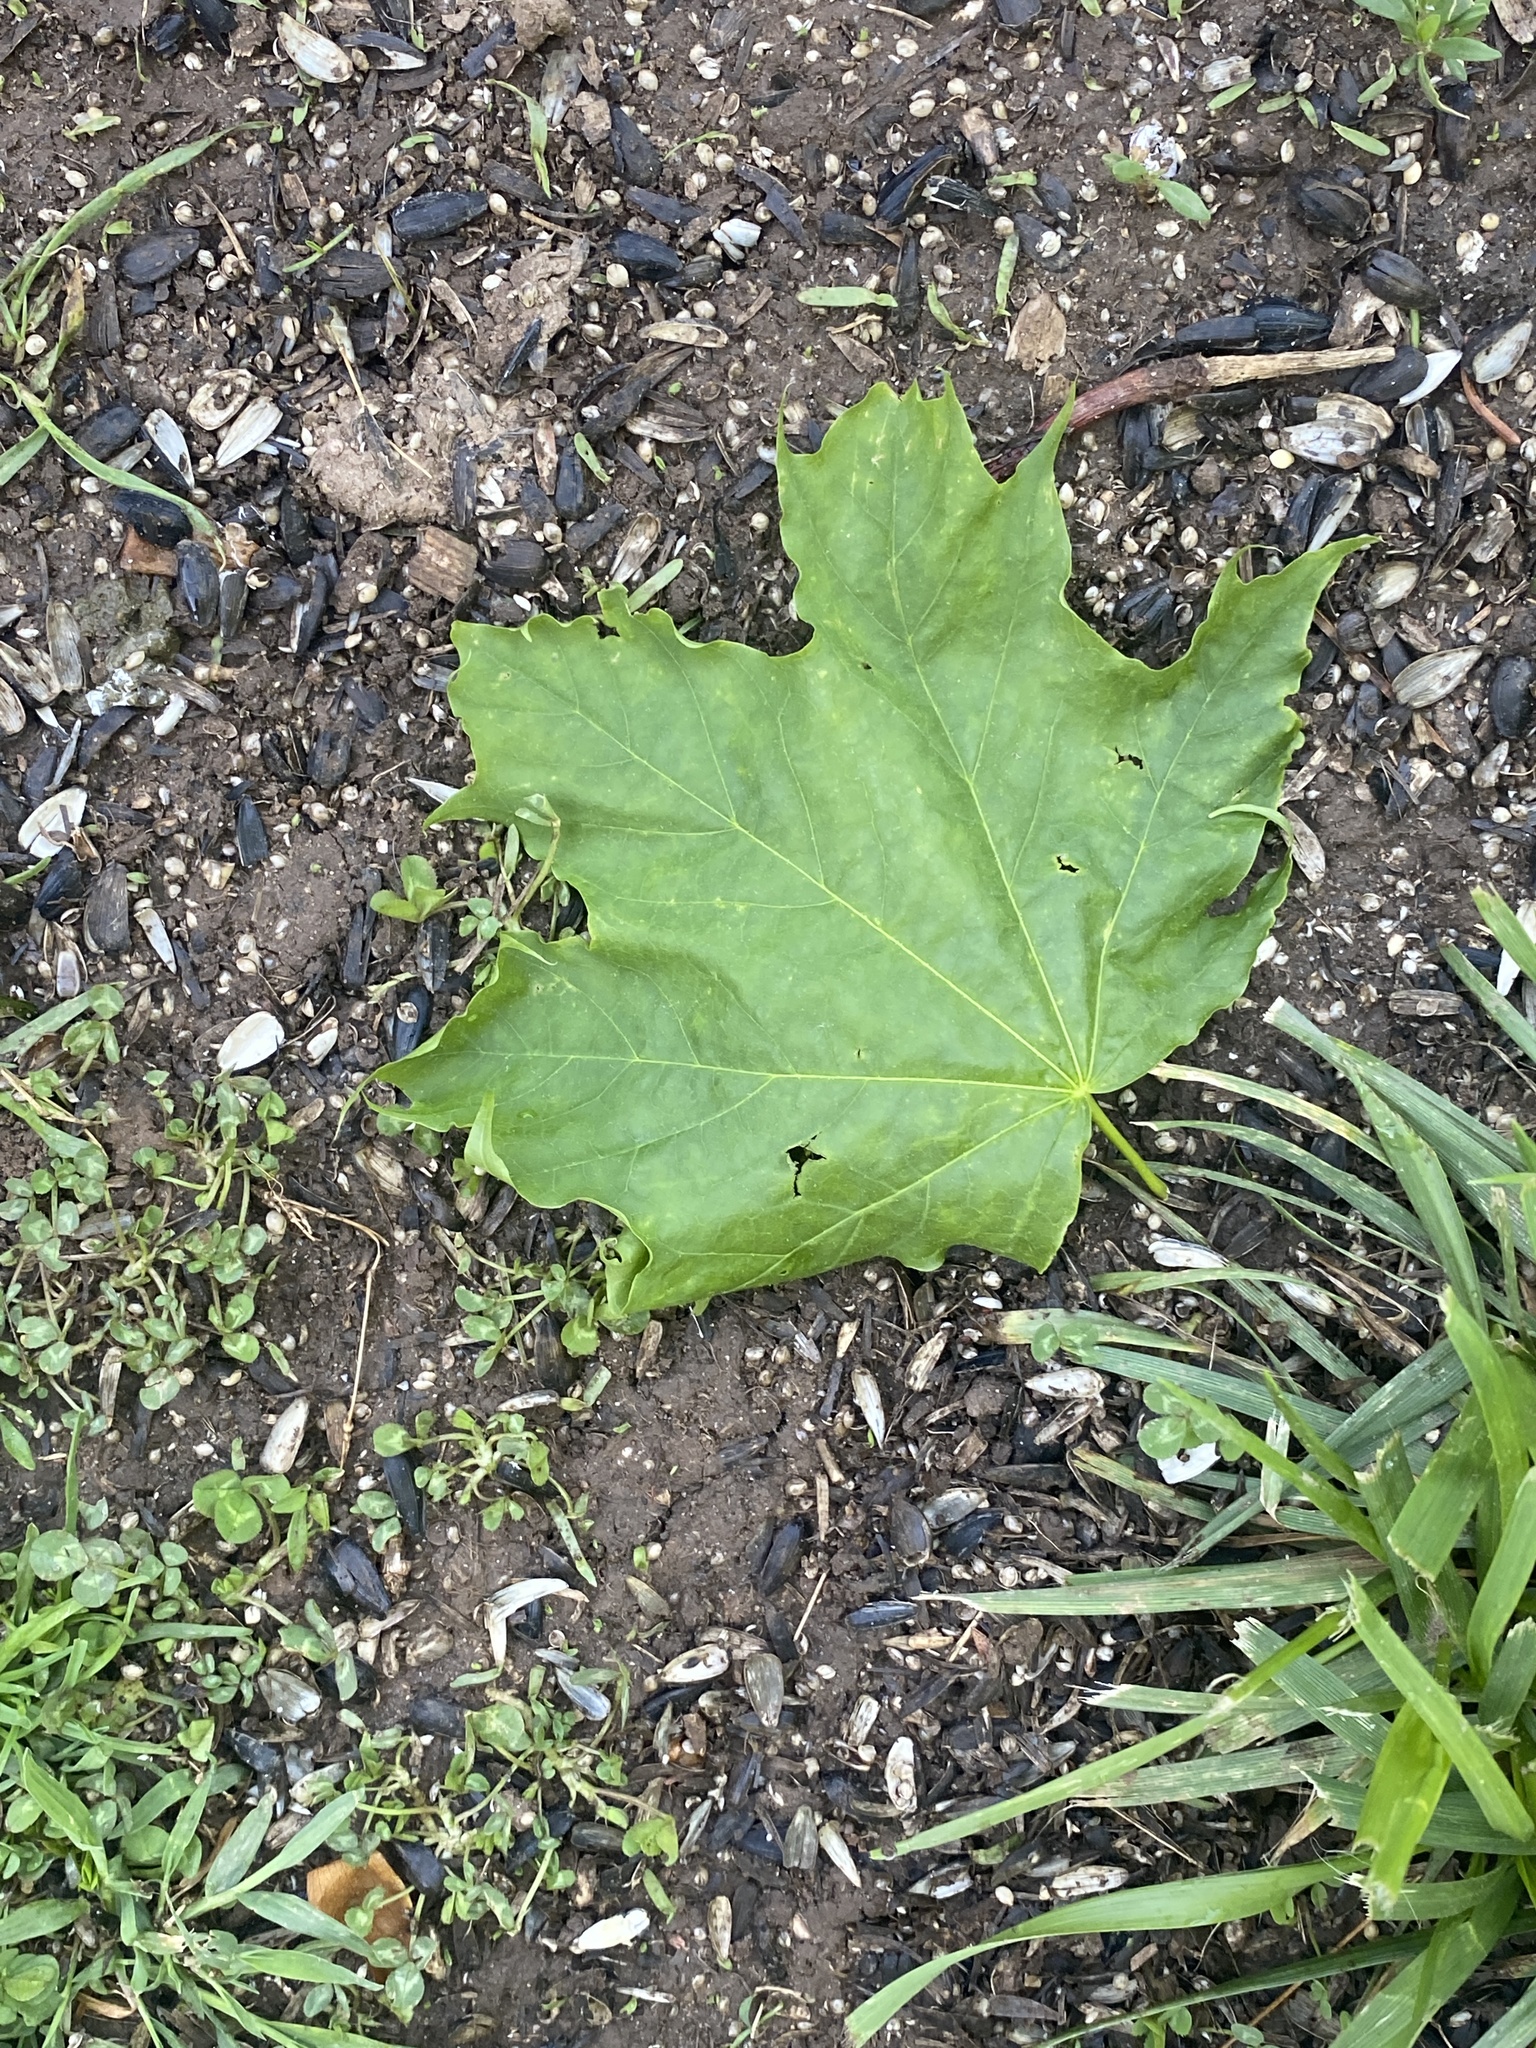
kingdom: Plantae
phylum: Tracheophyta
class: Magnoliopsida
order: Sapindales
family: Sapindaceae
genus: Acer
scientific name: Acer platanoides
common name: Norway maple
